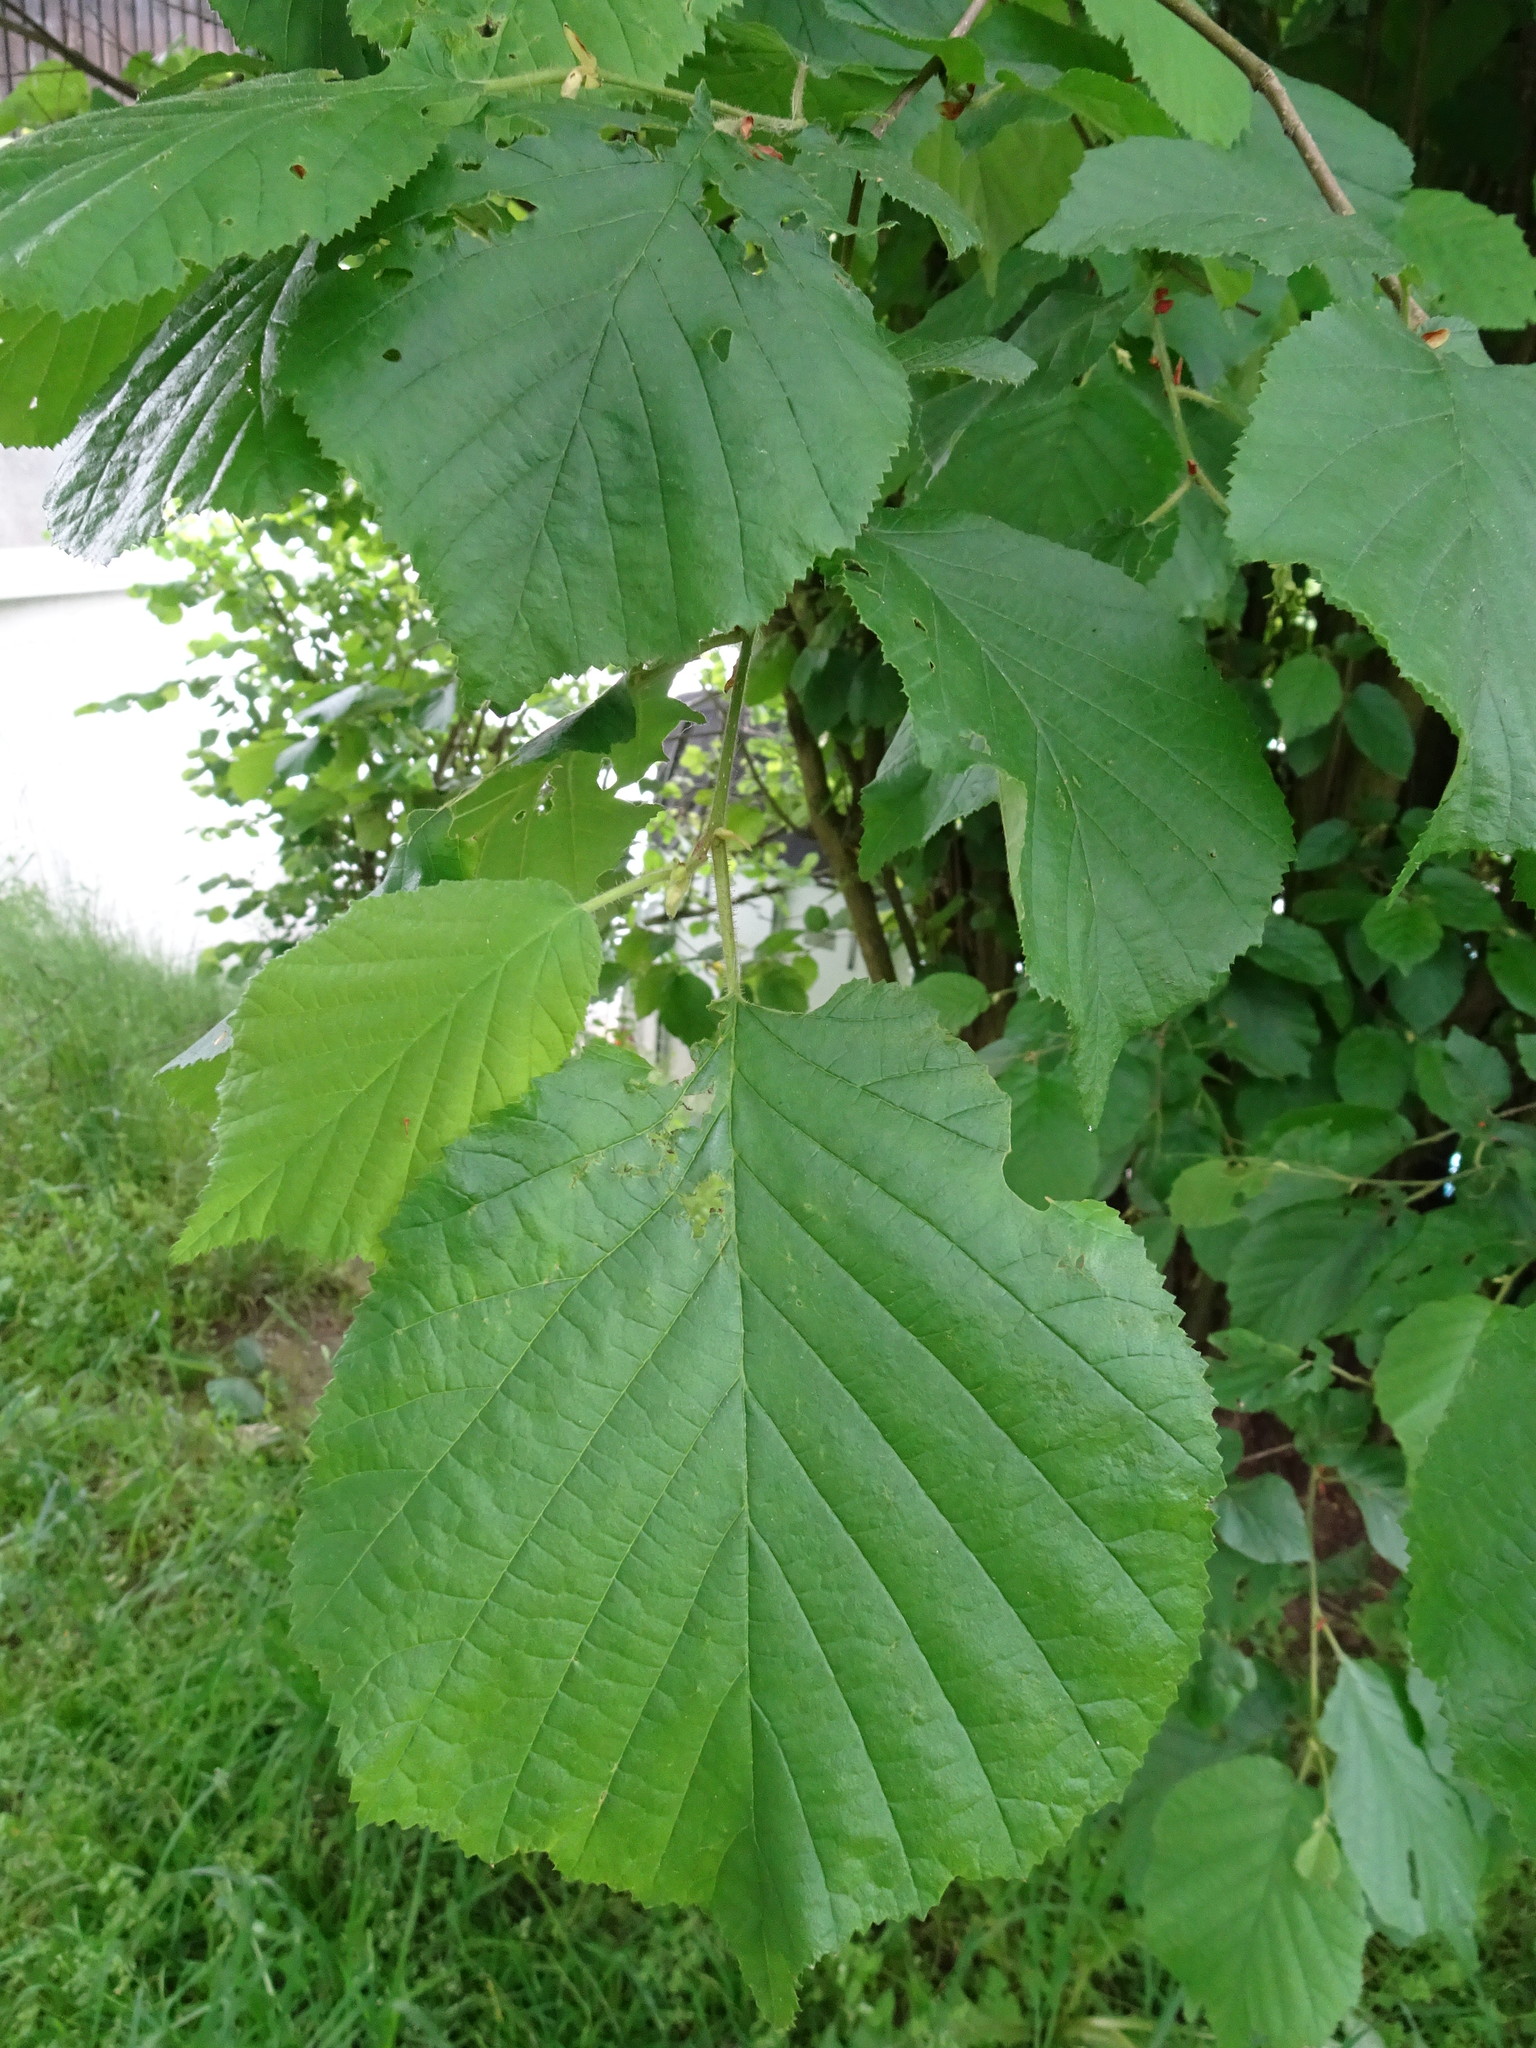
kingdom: Plantae
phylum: Tracheophyta
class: Magnoliopsida
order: Fagales
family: Betulaceae
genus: Corylus
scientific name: Corylus avellana
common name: European hazel
